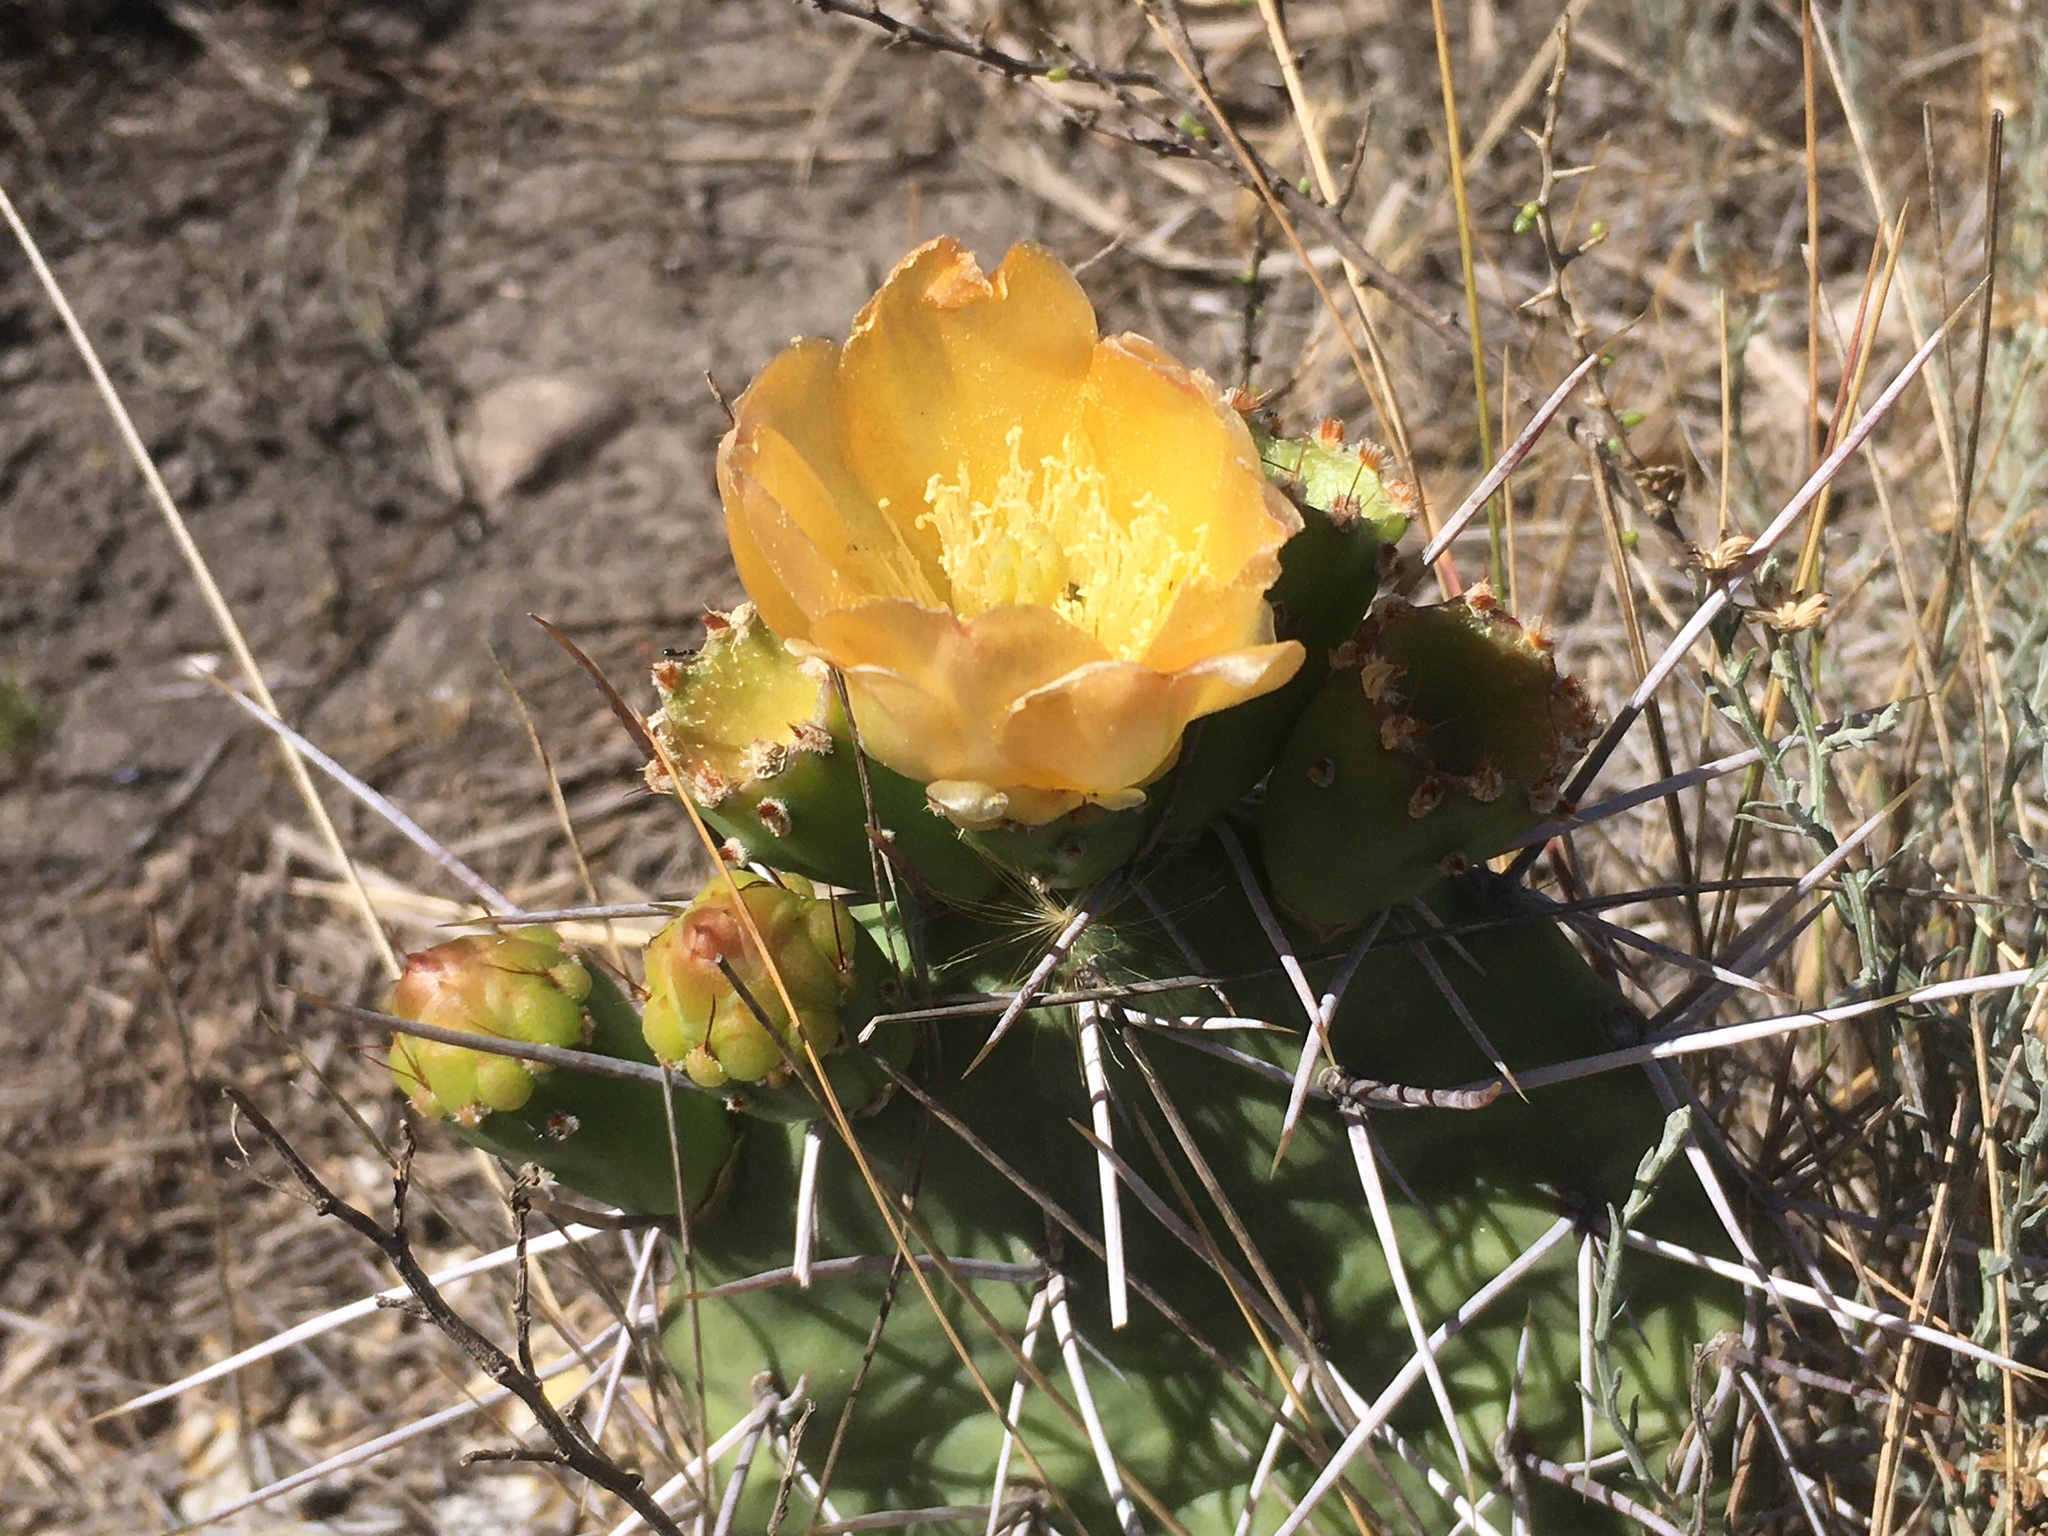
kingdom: Plantae
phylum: Tracheophyta
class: Magnoliopsida
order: Caryophyllales
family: Cactaceae
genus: Opuntia
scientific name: Opuntia sulphurea
